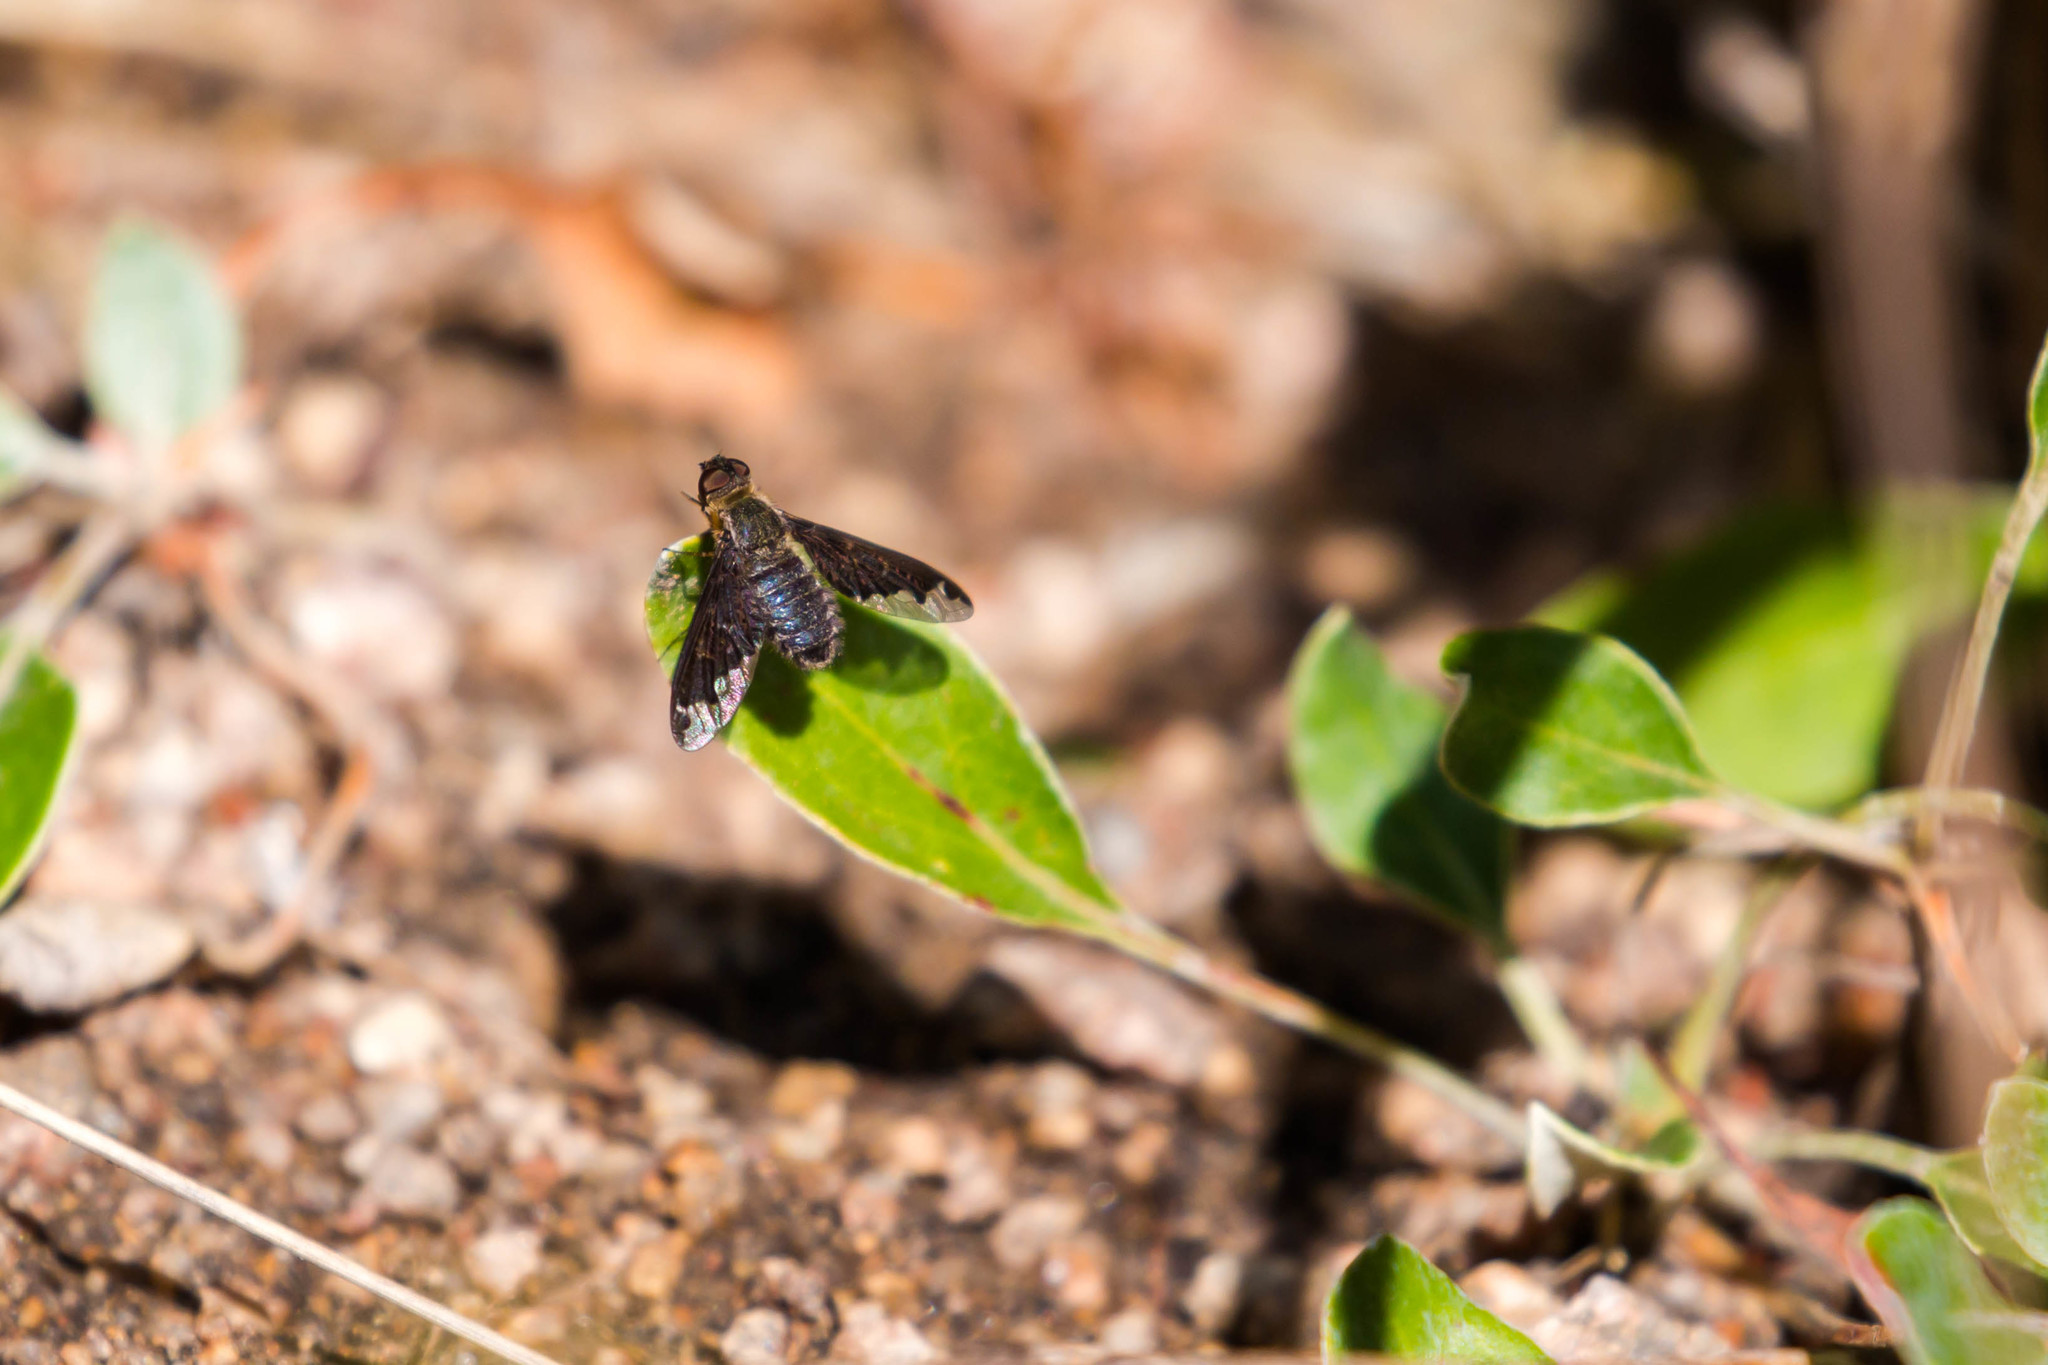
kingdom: Animalia
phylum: Arthropoda
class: Insecta
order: Diptera
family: Bombyliidae
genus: Hemipenthes
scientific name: Hemipenthes sinuosus
